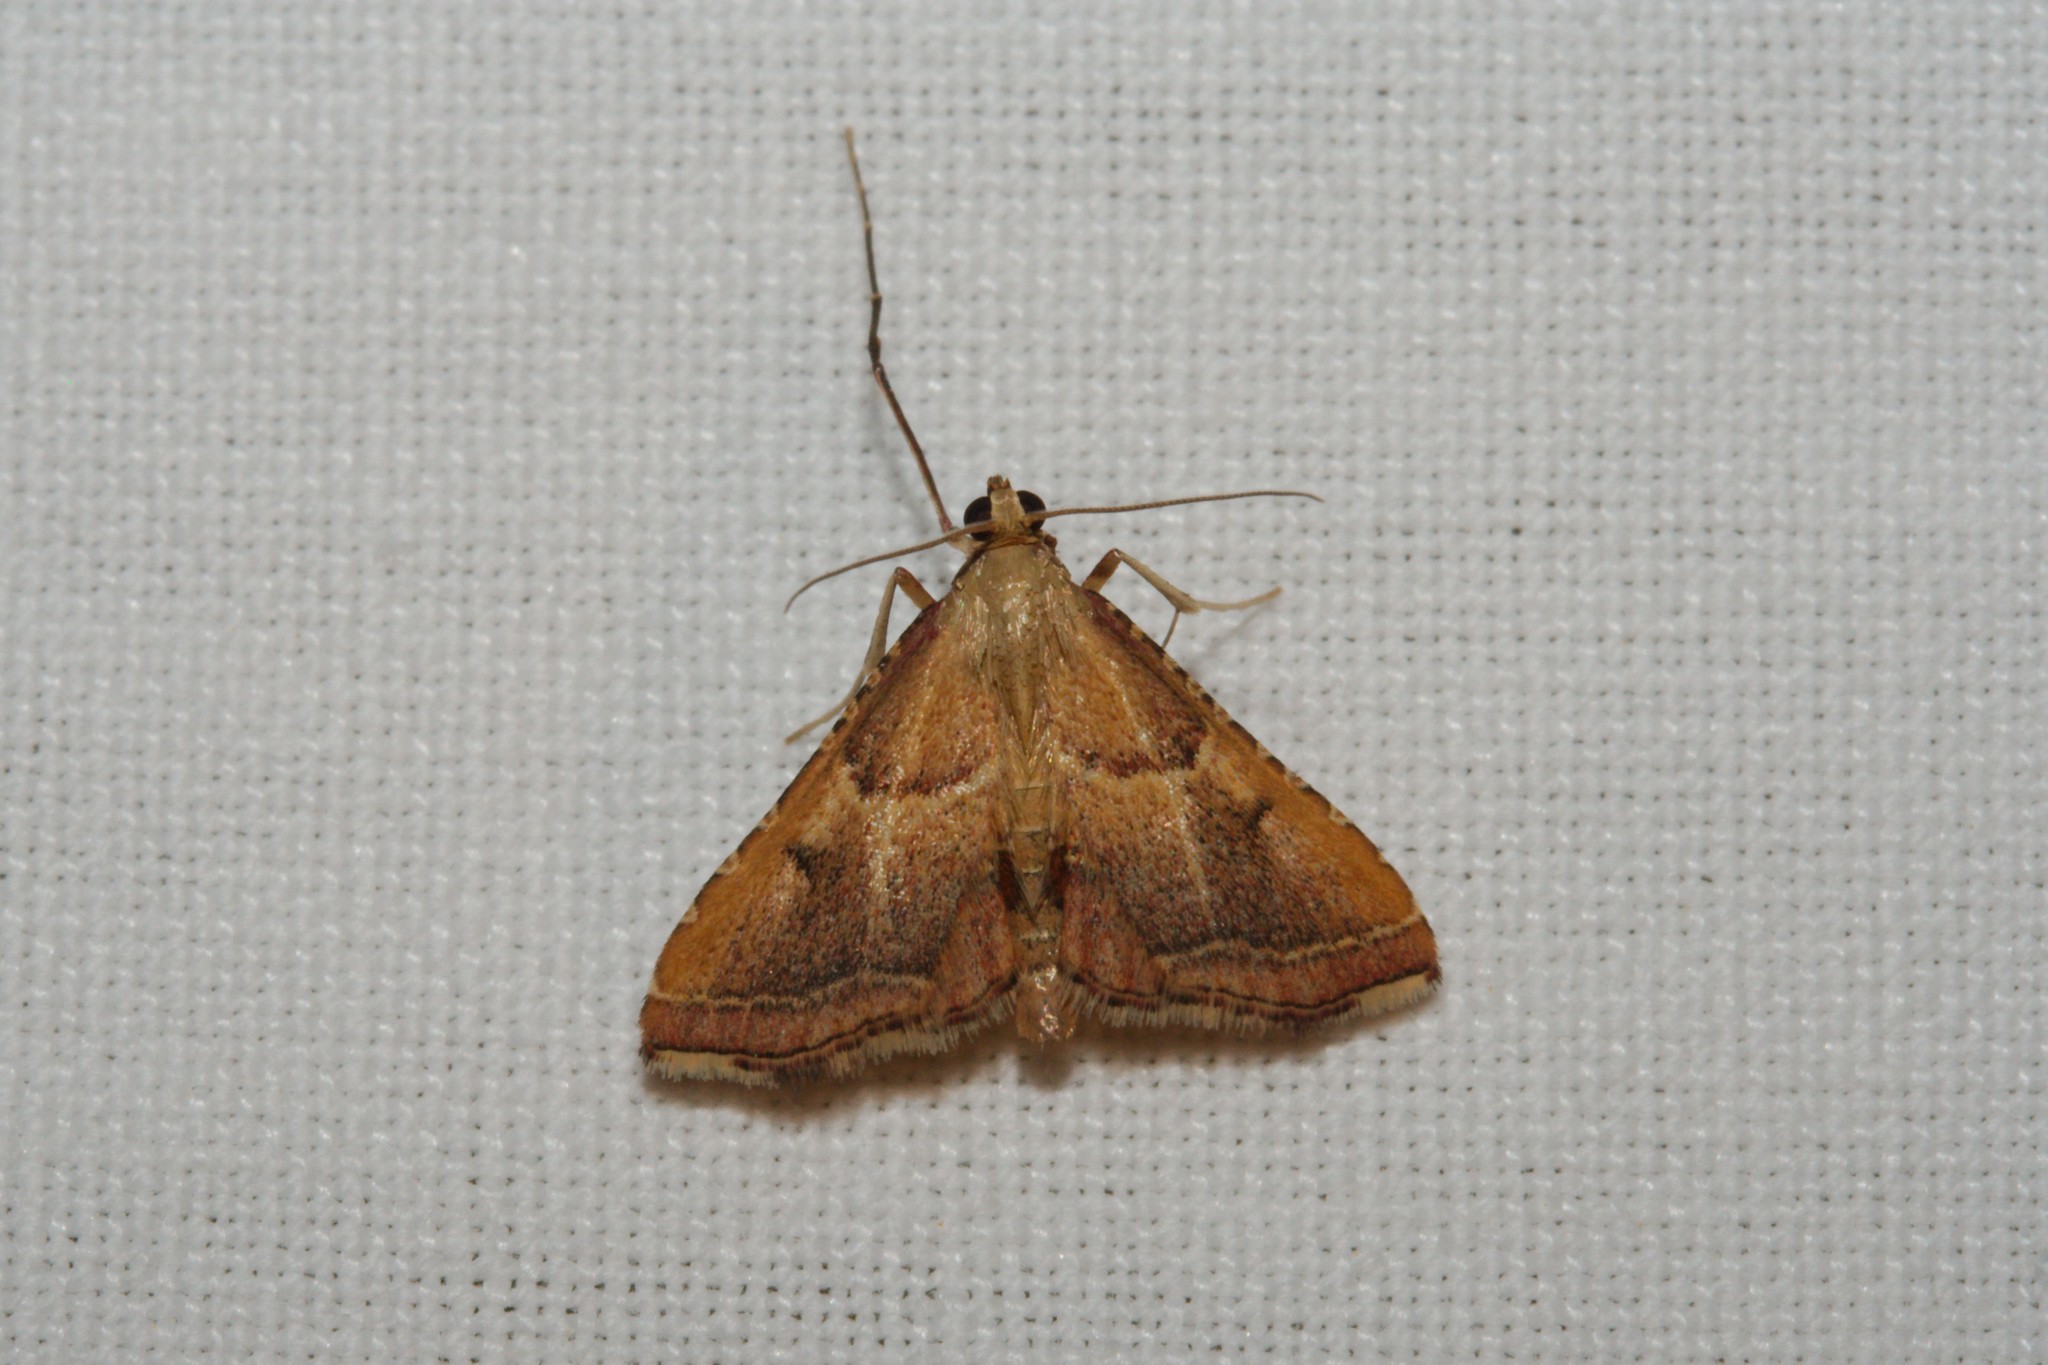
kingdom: Animalia
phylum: Arthropoda
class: Insecta
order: Lepidoptera
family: Pyralidae
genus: Endotricha
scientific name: Endotricha flammealis
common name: Rosy tabby
